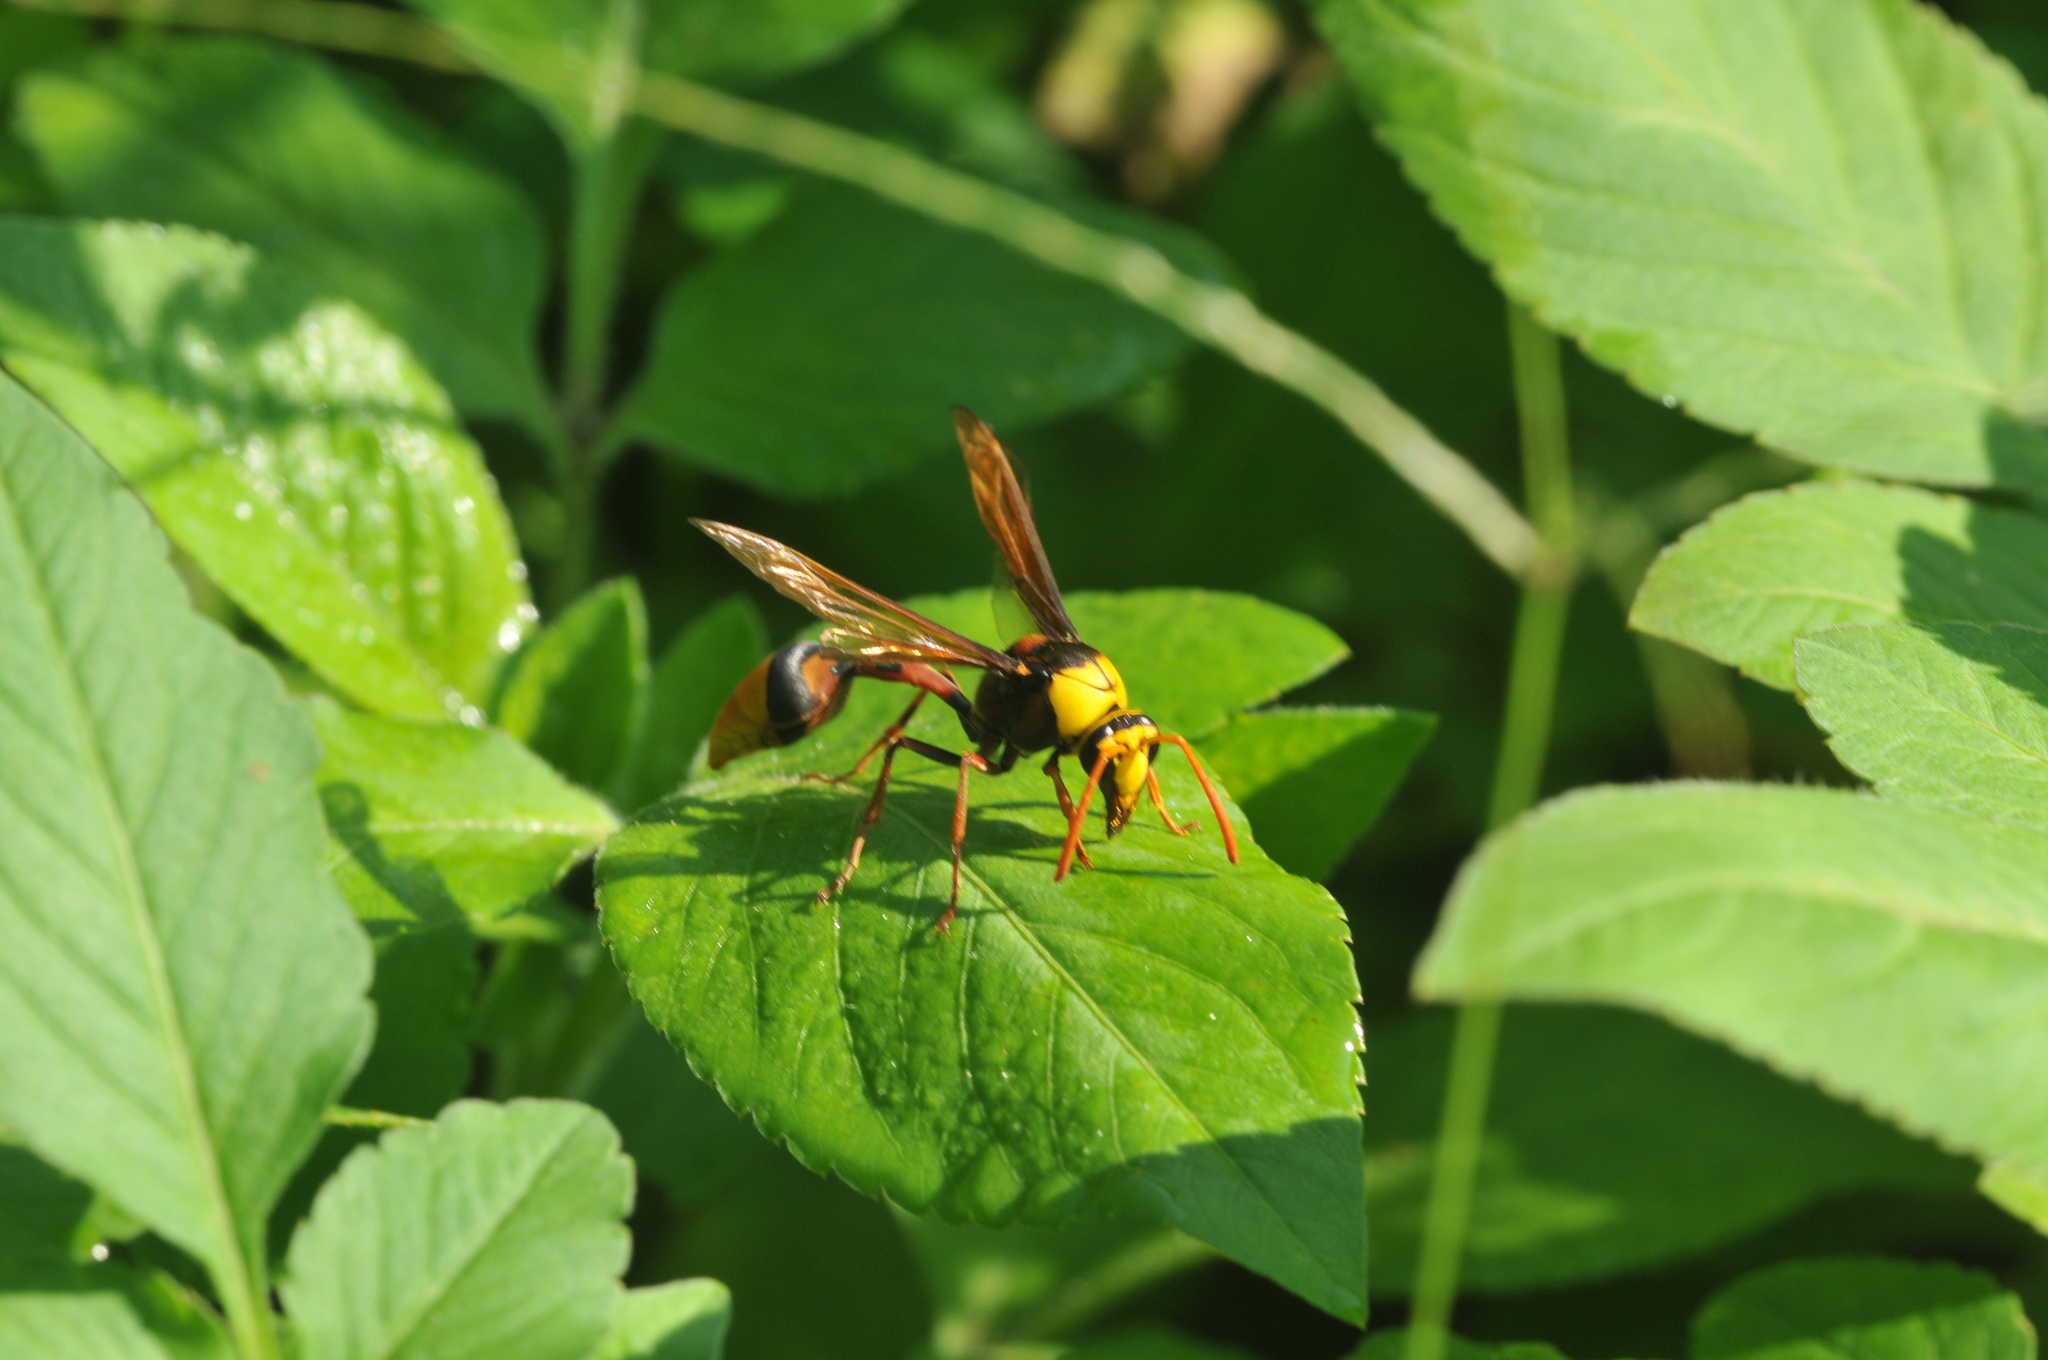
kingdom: Animalia
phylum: Arthropoda
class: Insecta
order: Hymenoptera
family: Eumenidae
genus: Delta
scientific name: Delta pyriforme
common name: Wasp
